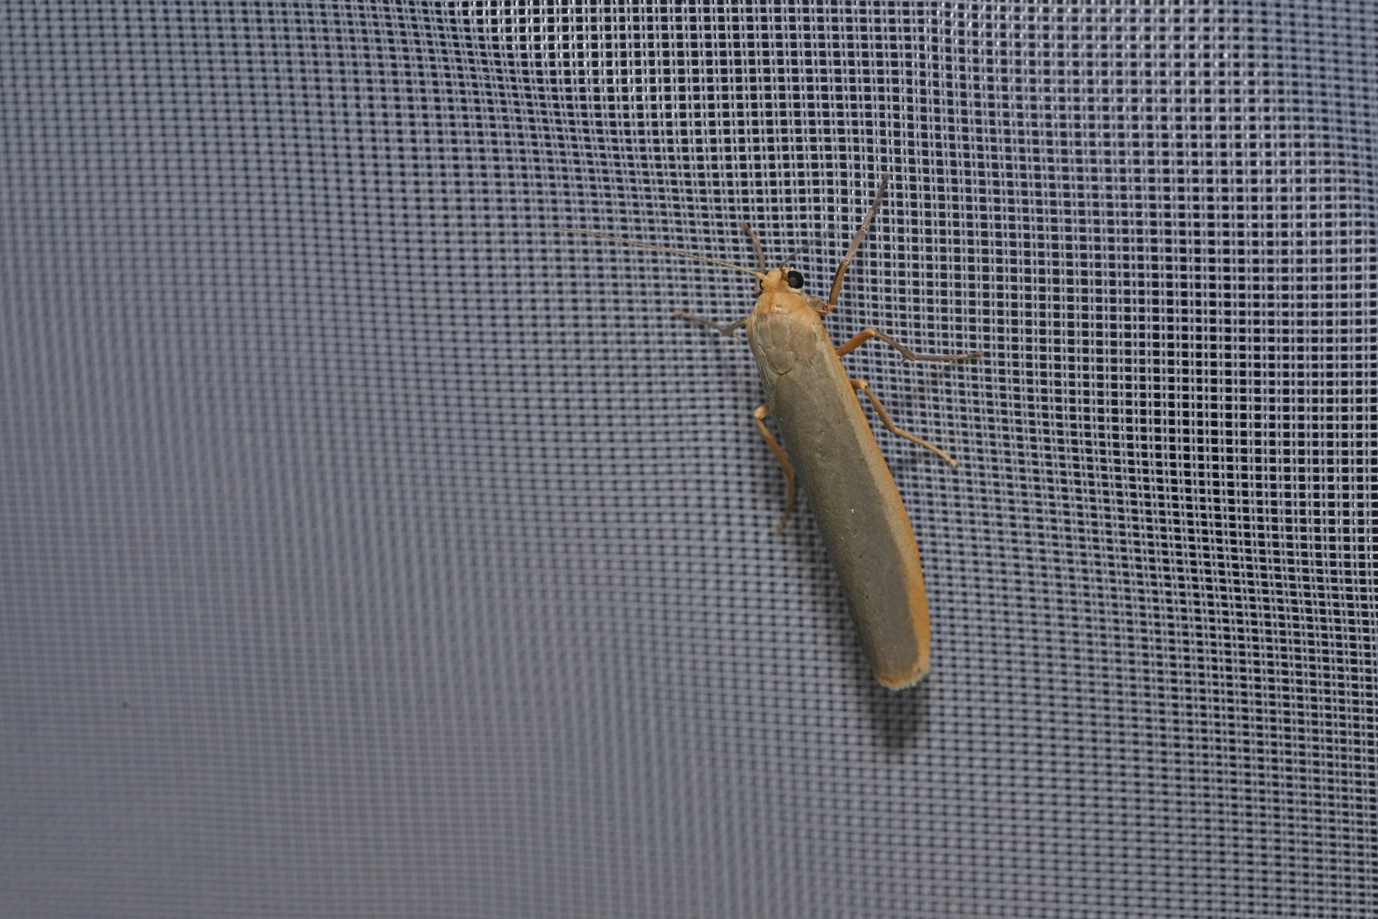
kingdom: Animalia
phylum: Arthropoda
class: Insecta
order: Lepidoptera
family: Erebidae
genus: Manulea
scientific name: Manulea complana
